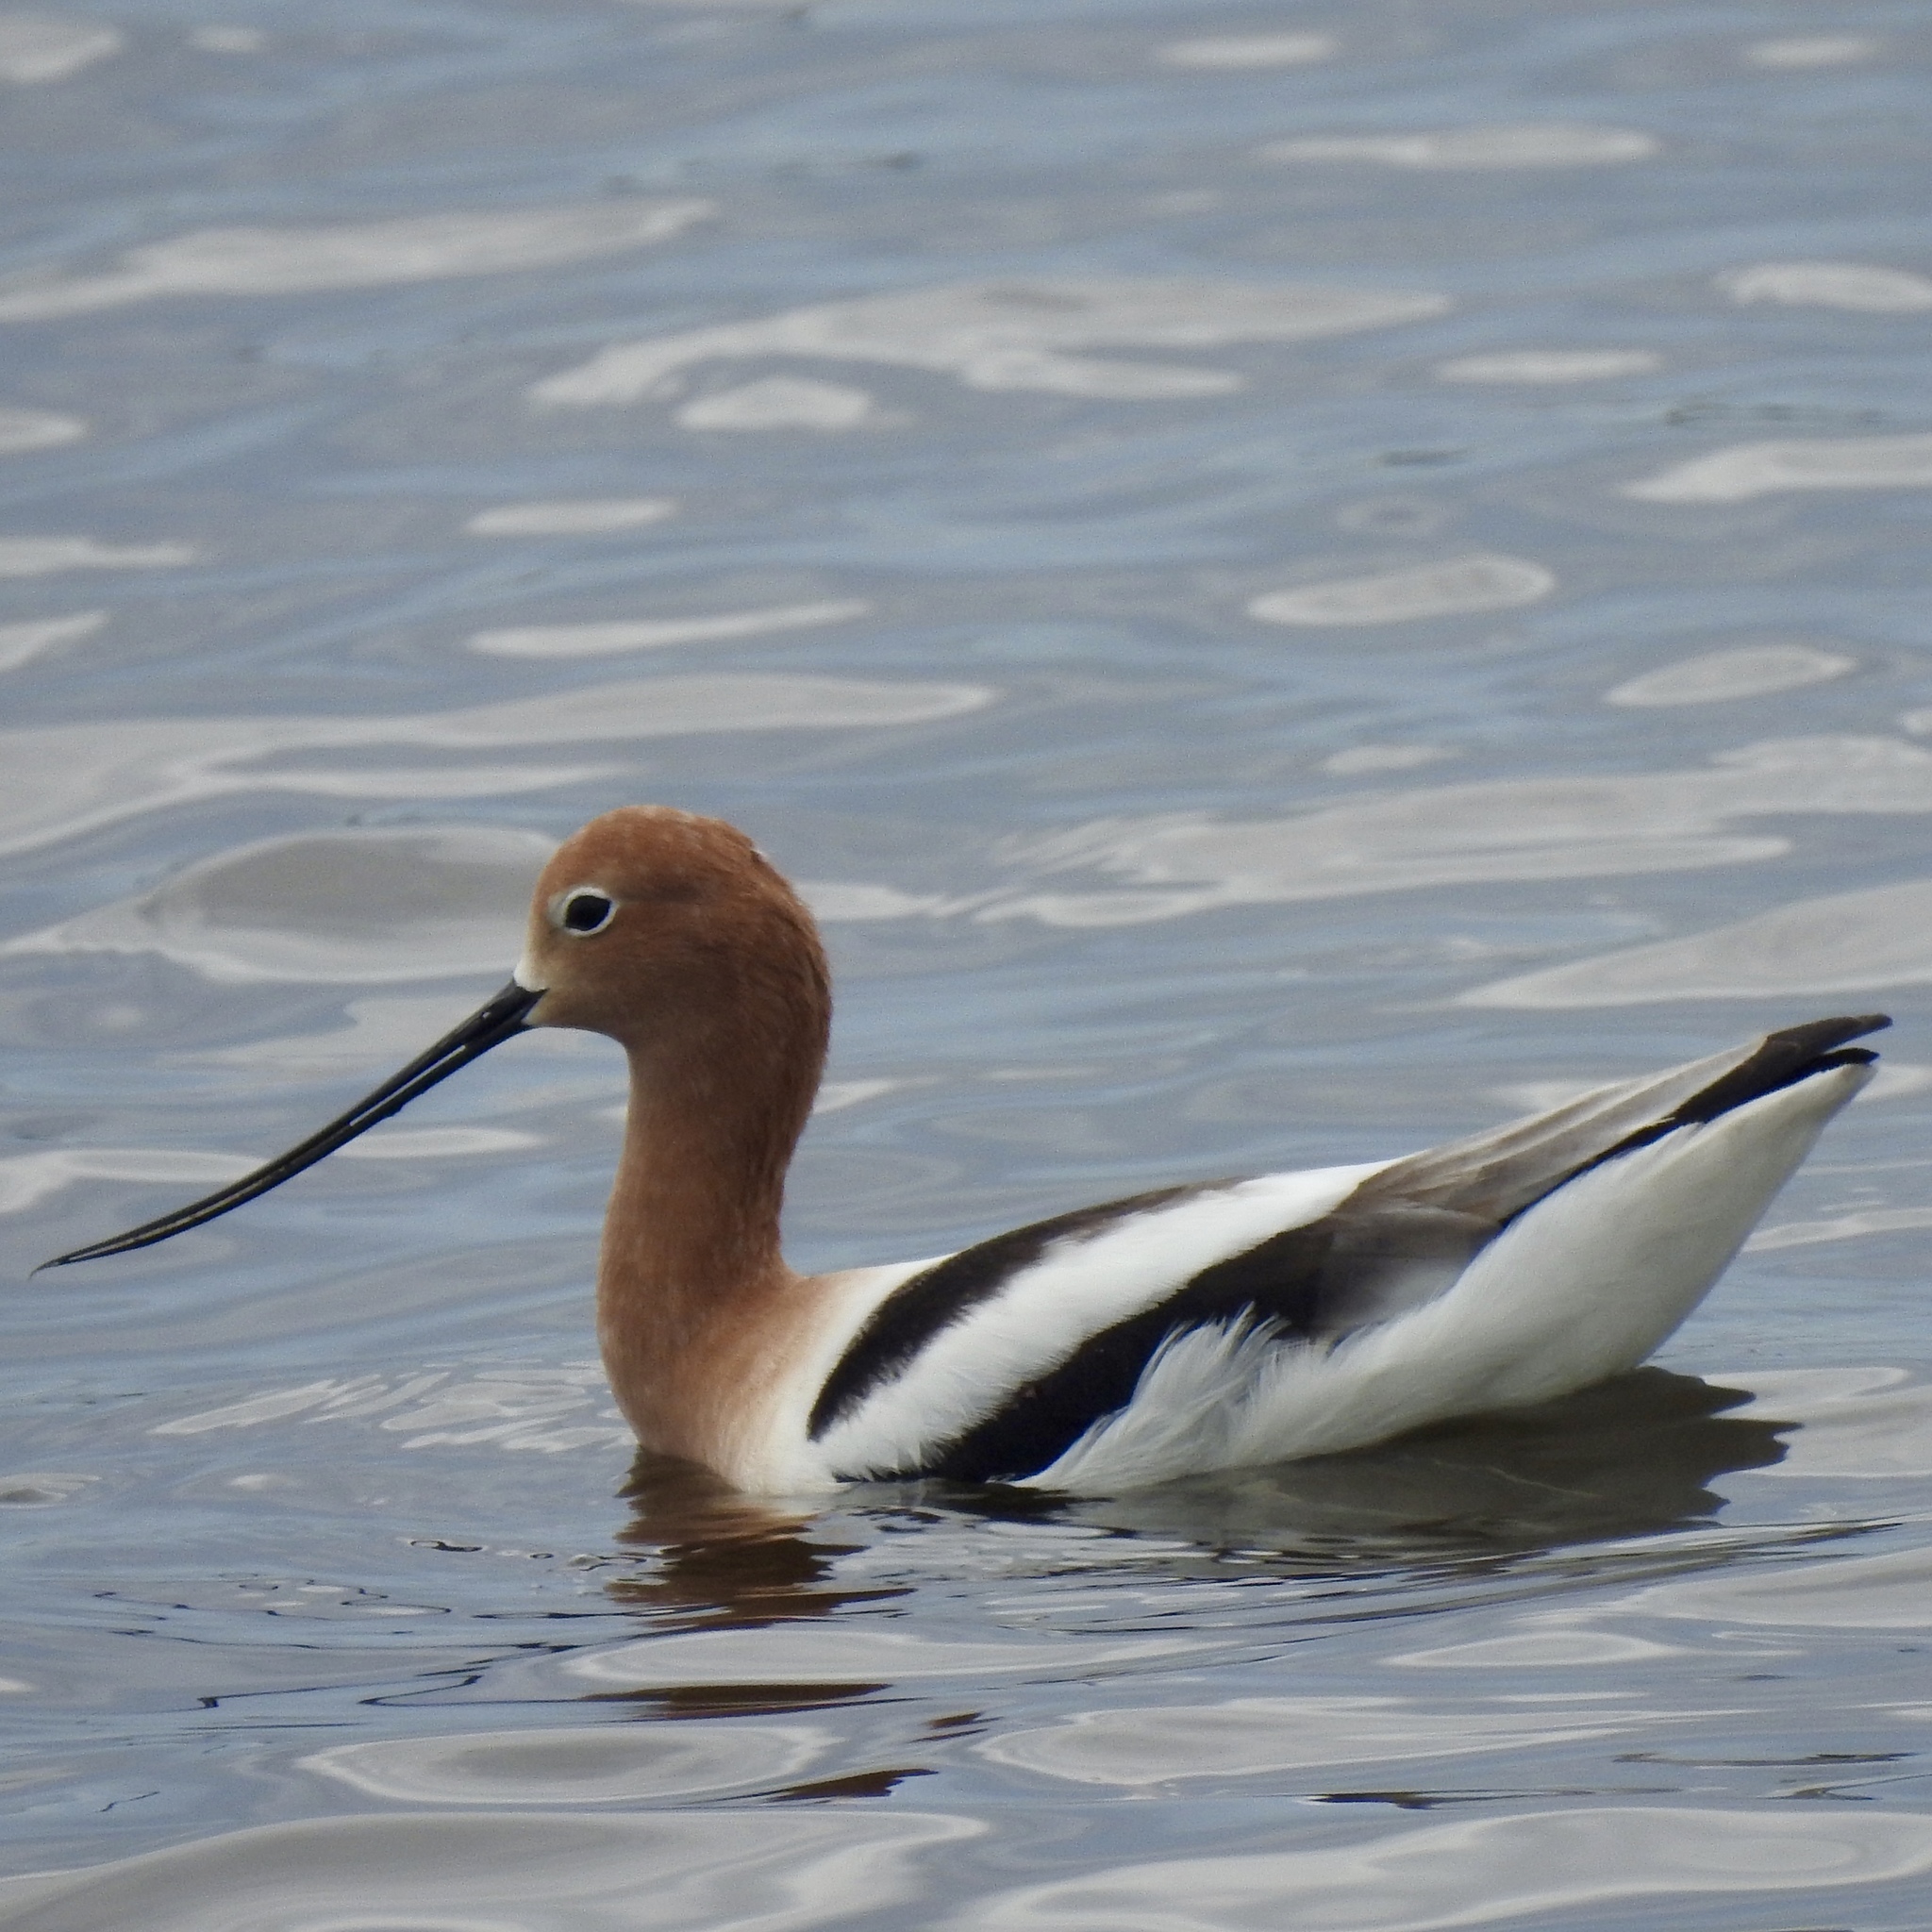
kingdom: Animalia
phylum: Chordata
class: Aves
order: Charadriiformes
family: Recurvirostridae
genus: Recurvirostra
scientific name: Recurvirostra americana
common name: American avocet
